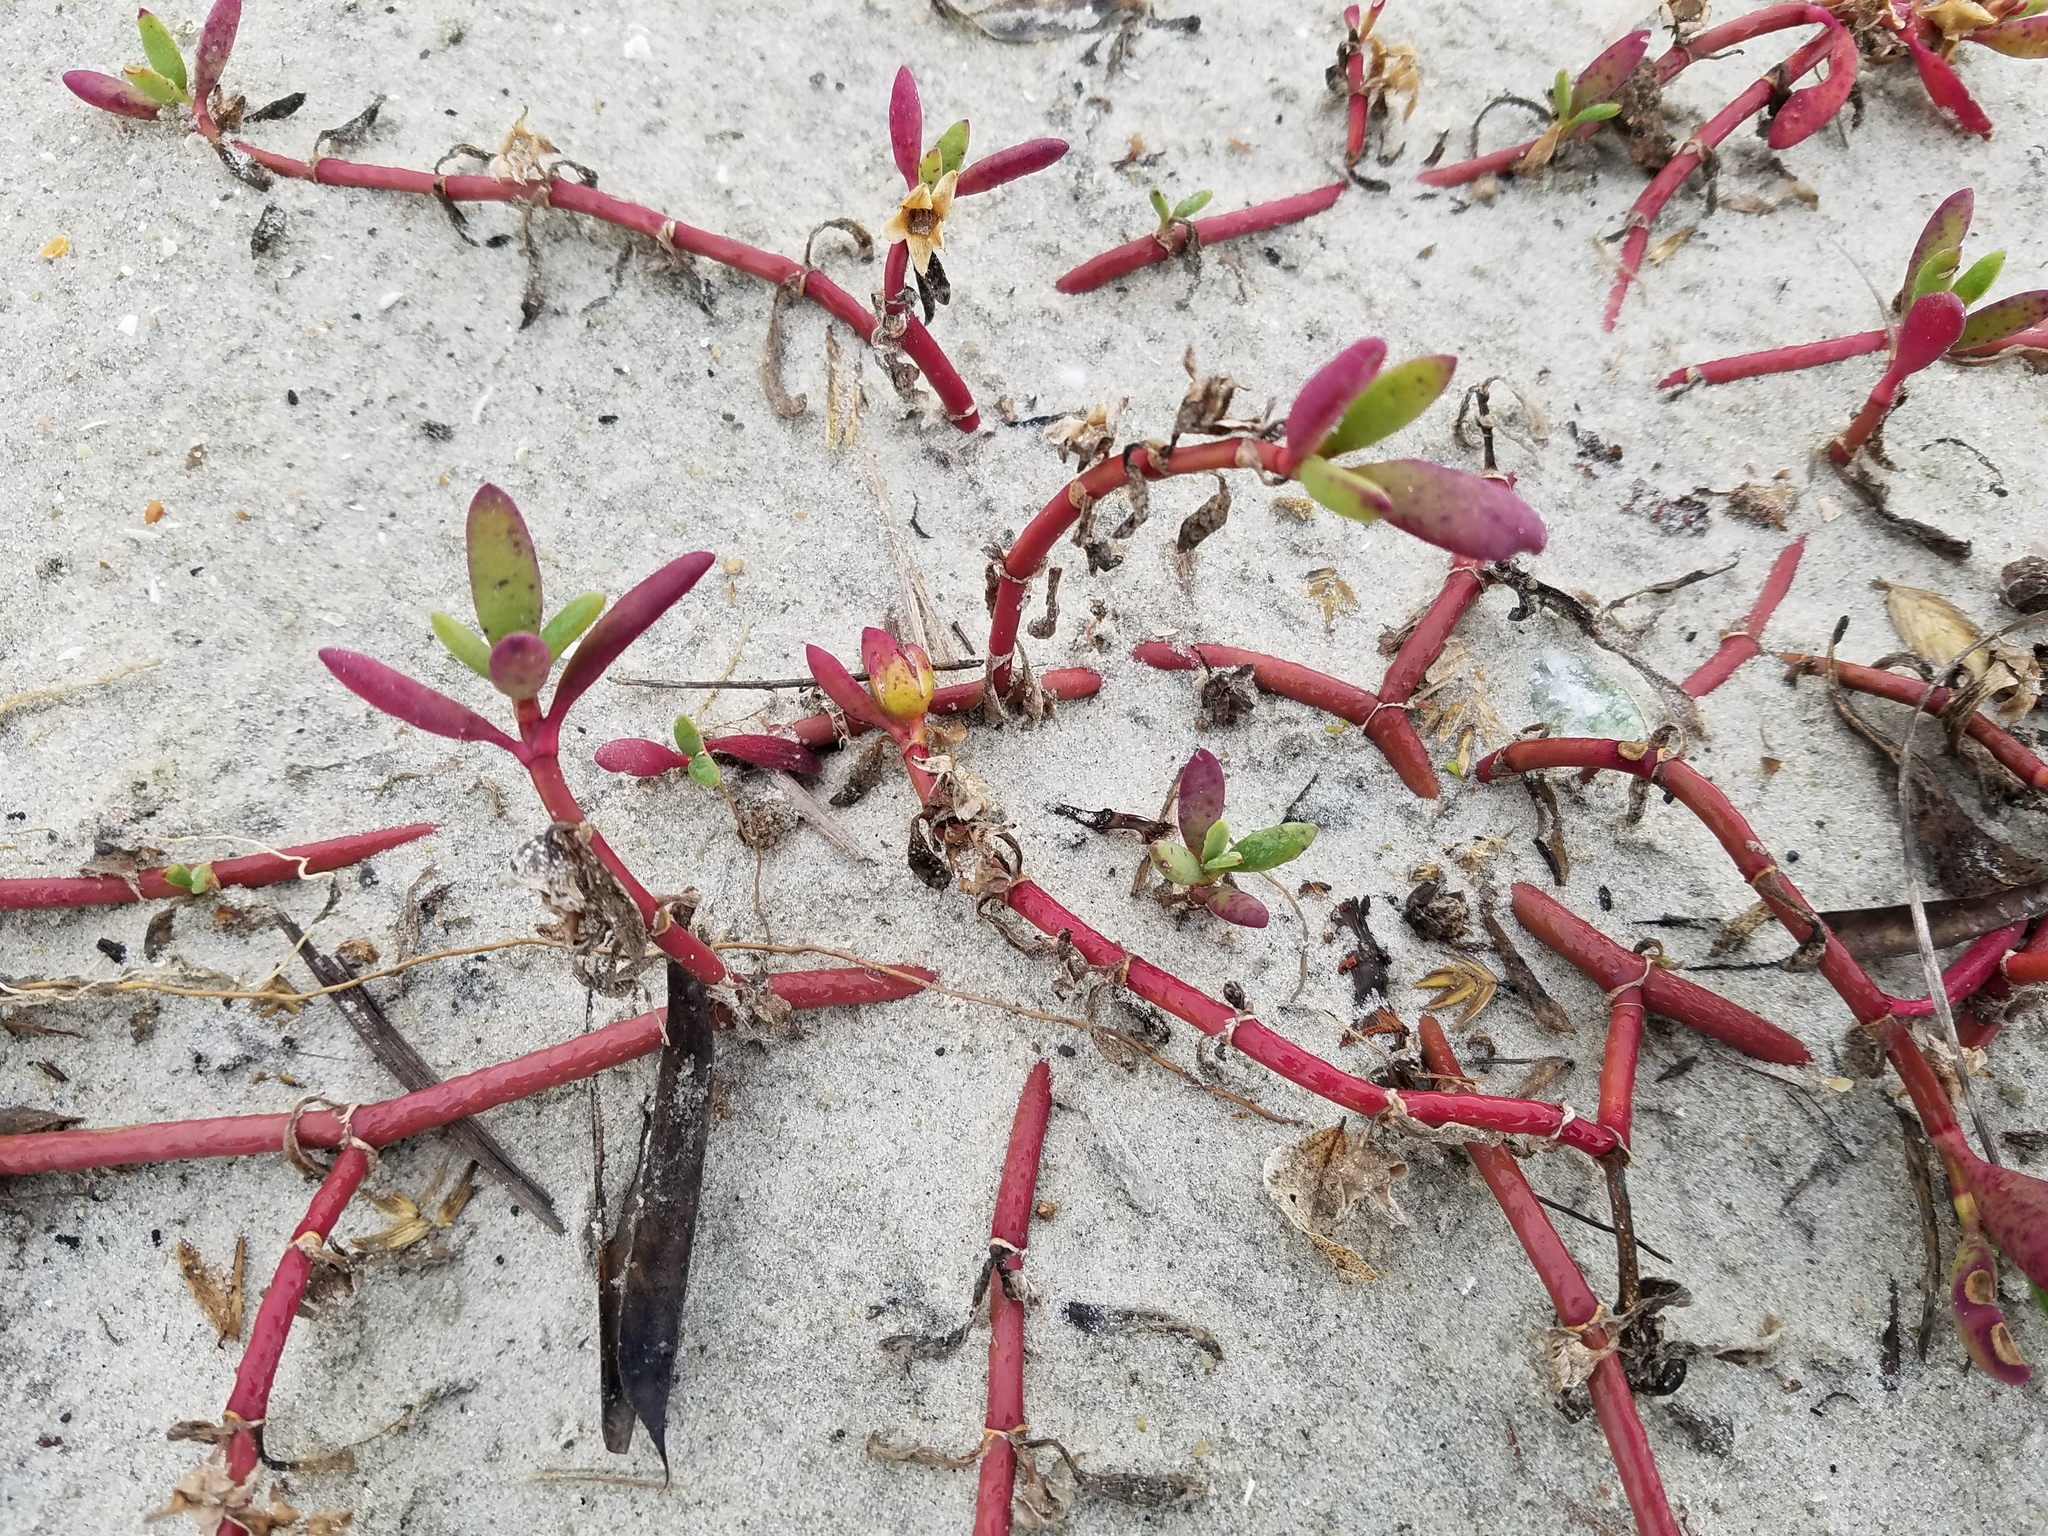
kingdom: Plantae
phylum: Tracheophyta
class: Magnoliopsida
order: Caryophyllales
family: Aizoaceae
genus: Sesuvium
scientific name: Sesuvium portulacastrum
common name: Sea-purslane
